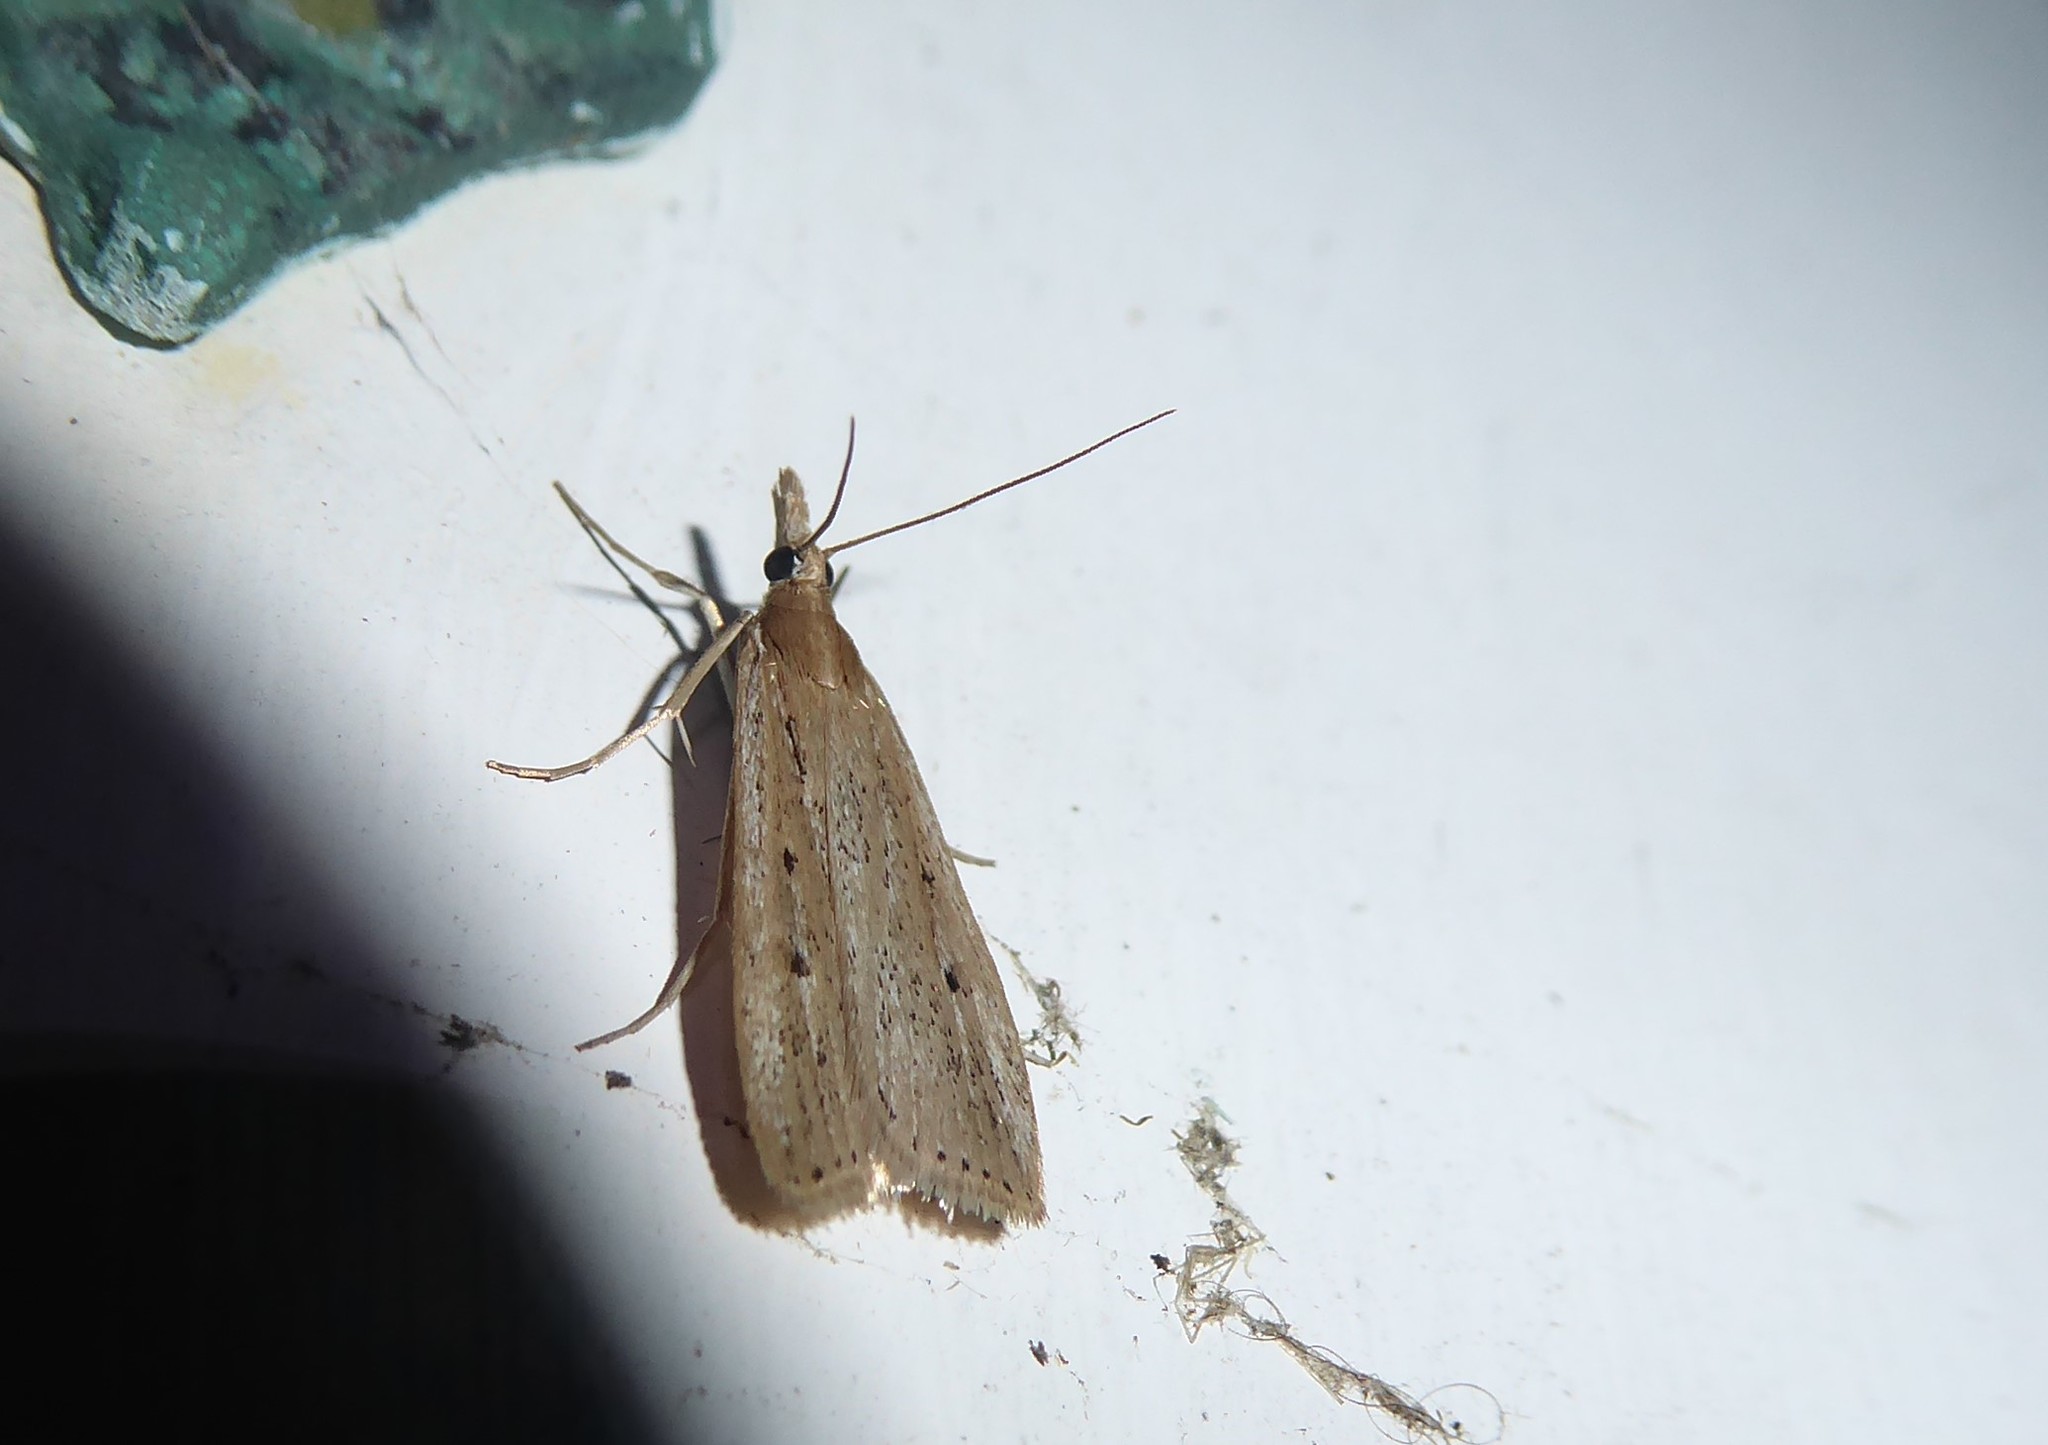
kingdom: Animalia
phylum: Arthropoda
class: Insecta
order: Lepidoptera
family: Crambidae
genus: Eudonia
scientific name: Eudonia sabulosella
